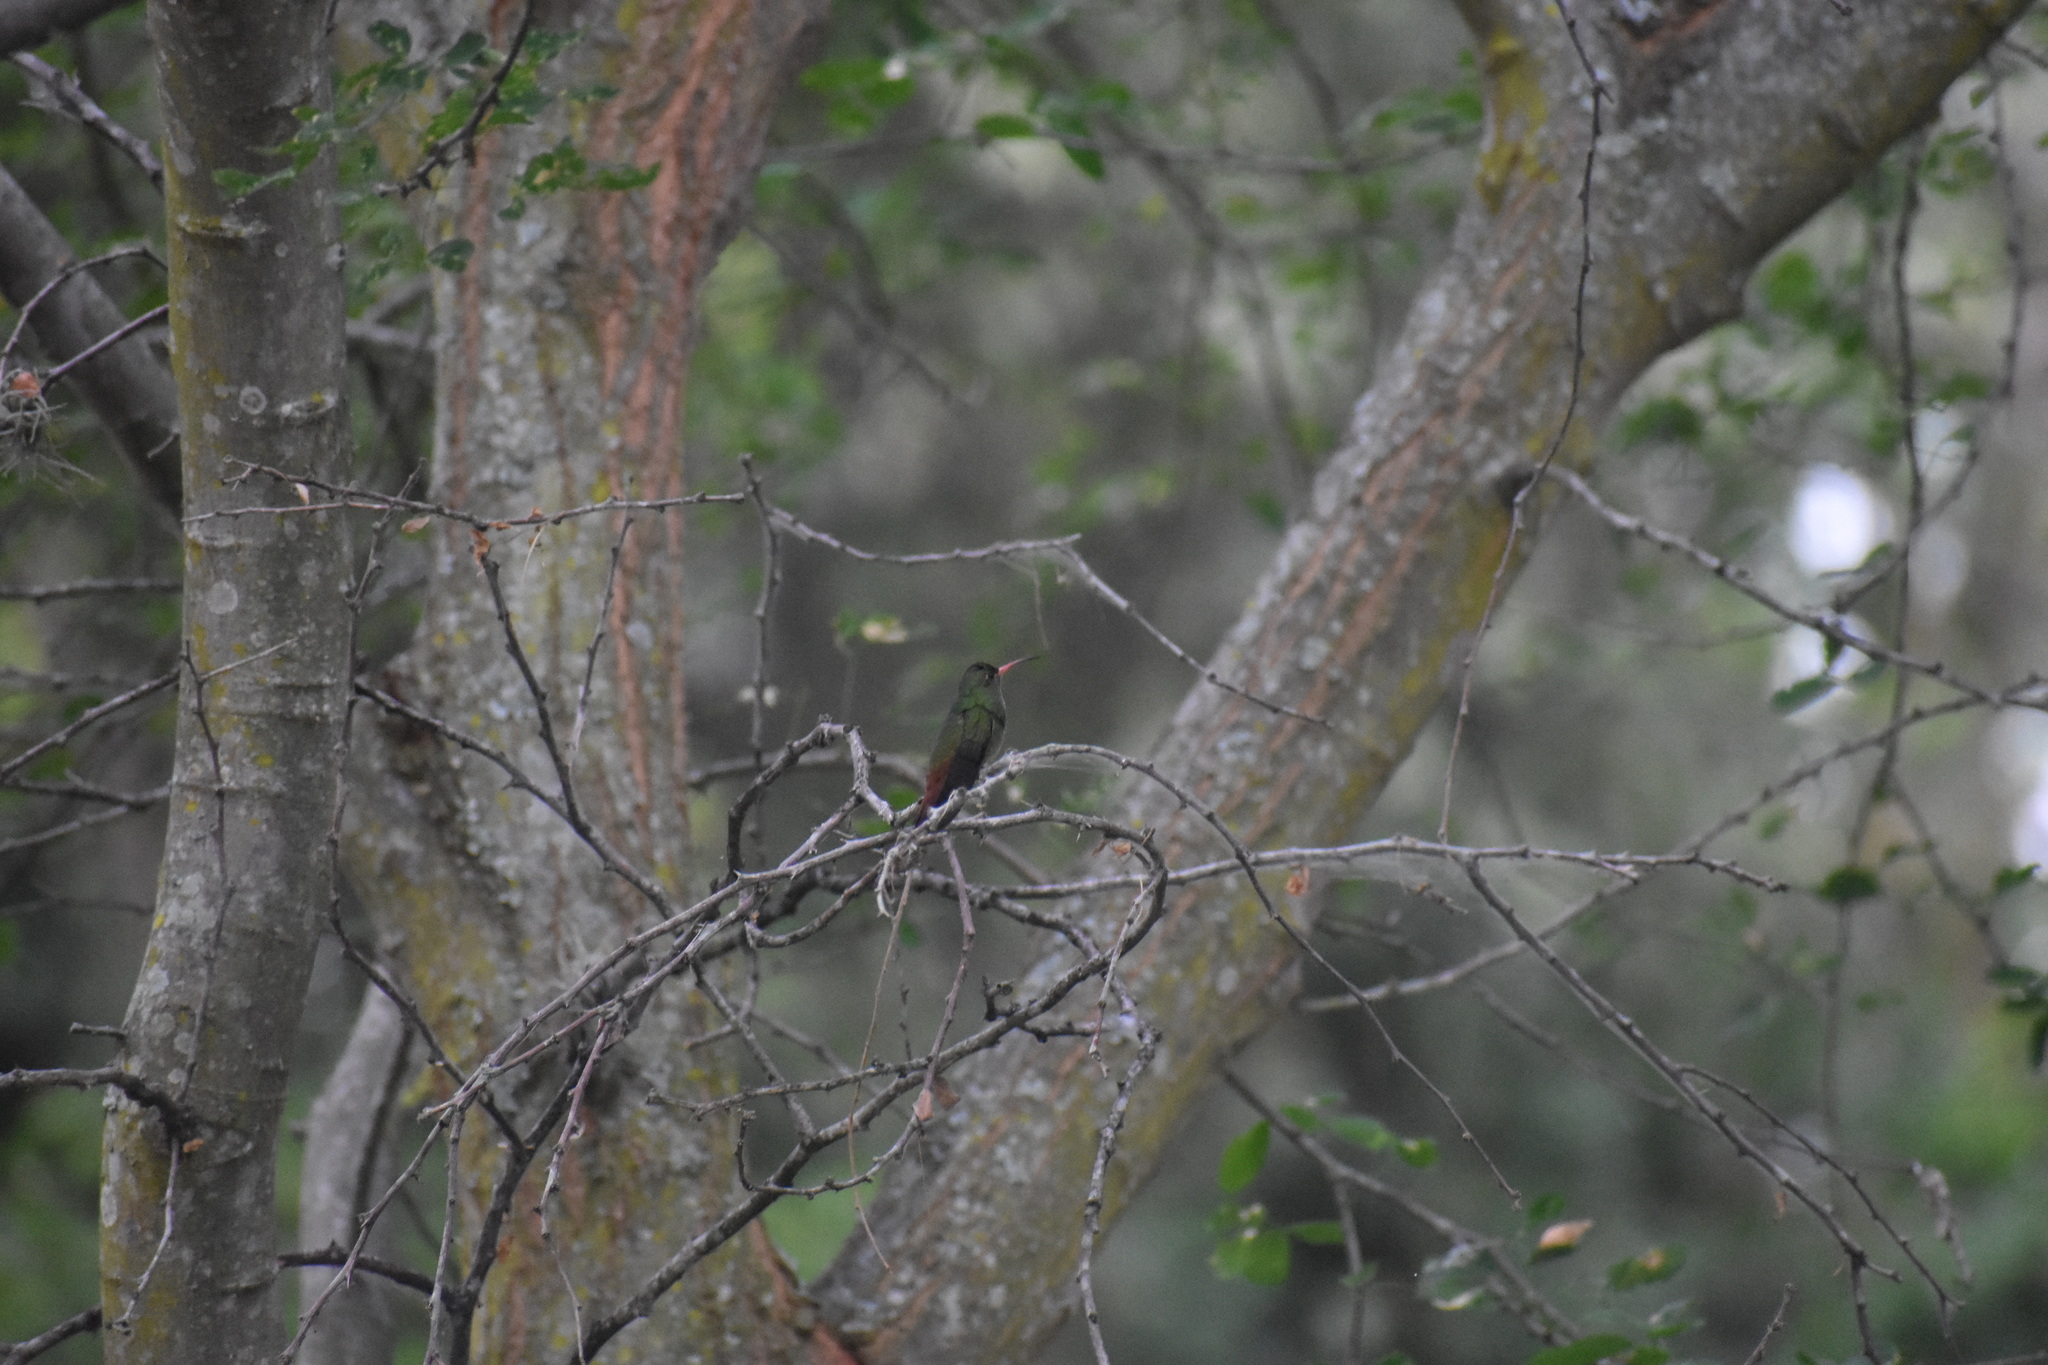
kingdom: Animalia
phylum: Chordata
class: Aves
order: Apodiformes
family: Trochilidae
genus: Amazilia
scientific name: Amazilia tzacatl
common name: Rufous-tailed hummingbird
